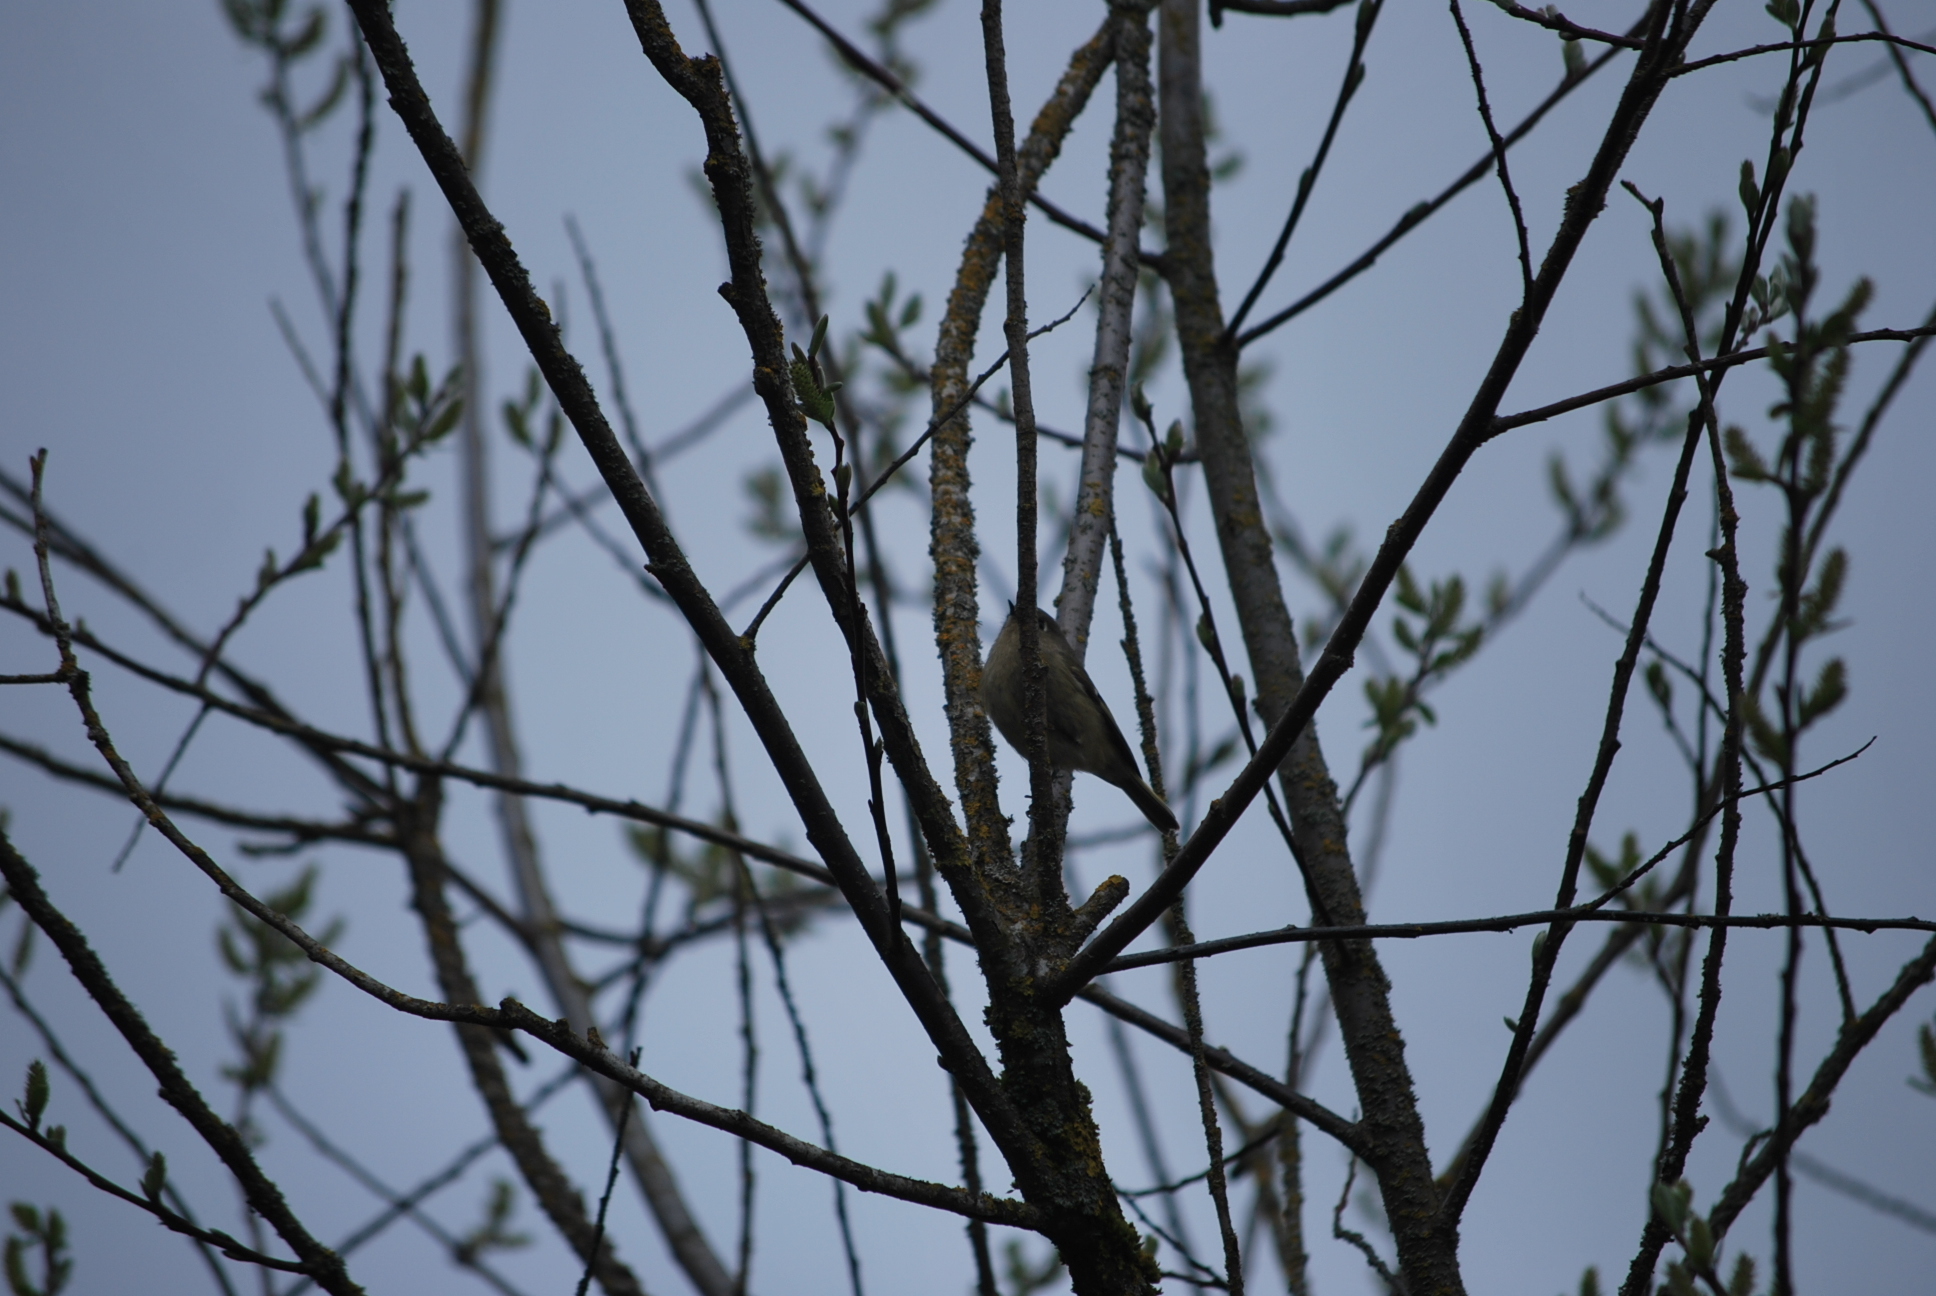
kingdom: Animalia
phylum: Chordata
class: Aves
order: Passeriformes
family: Regulidae
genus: Regulus
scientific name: Regulus calendula
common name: Ruby-crowned kinglet
